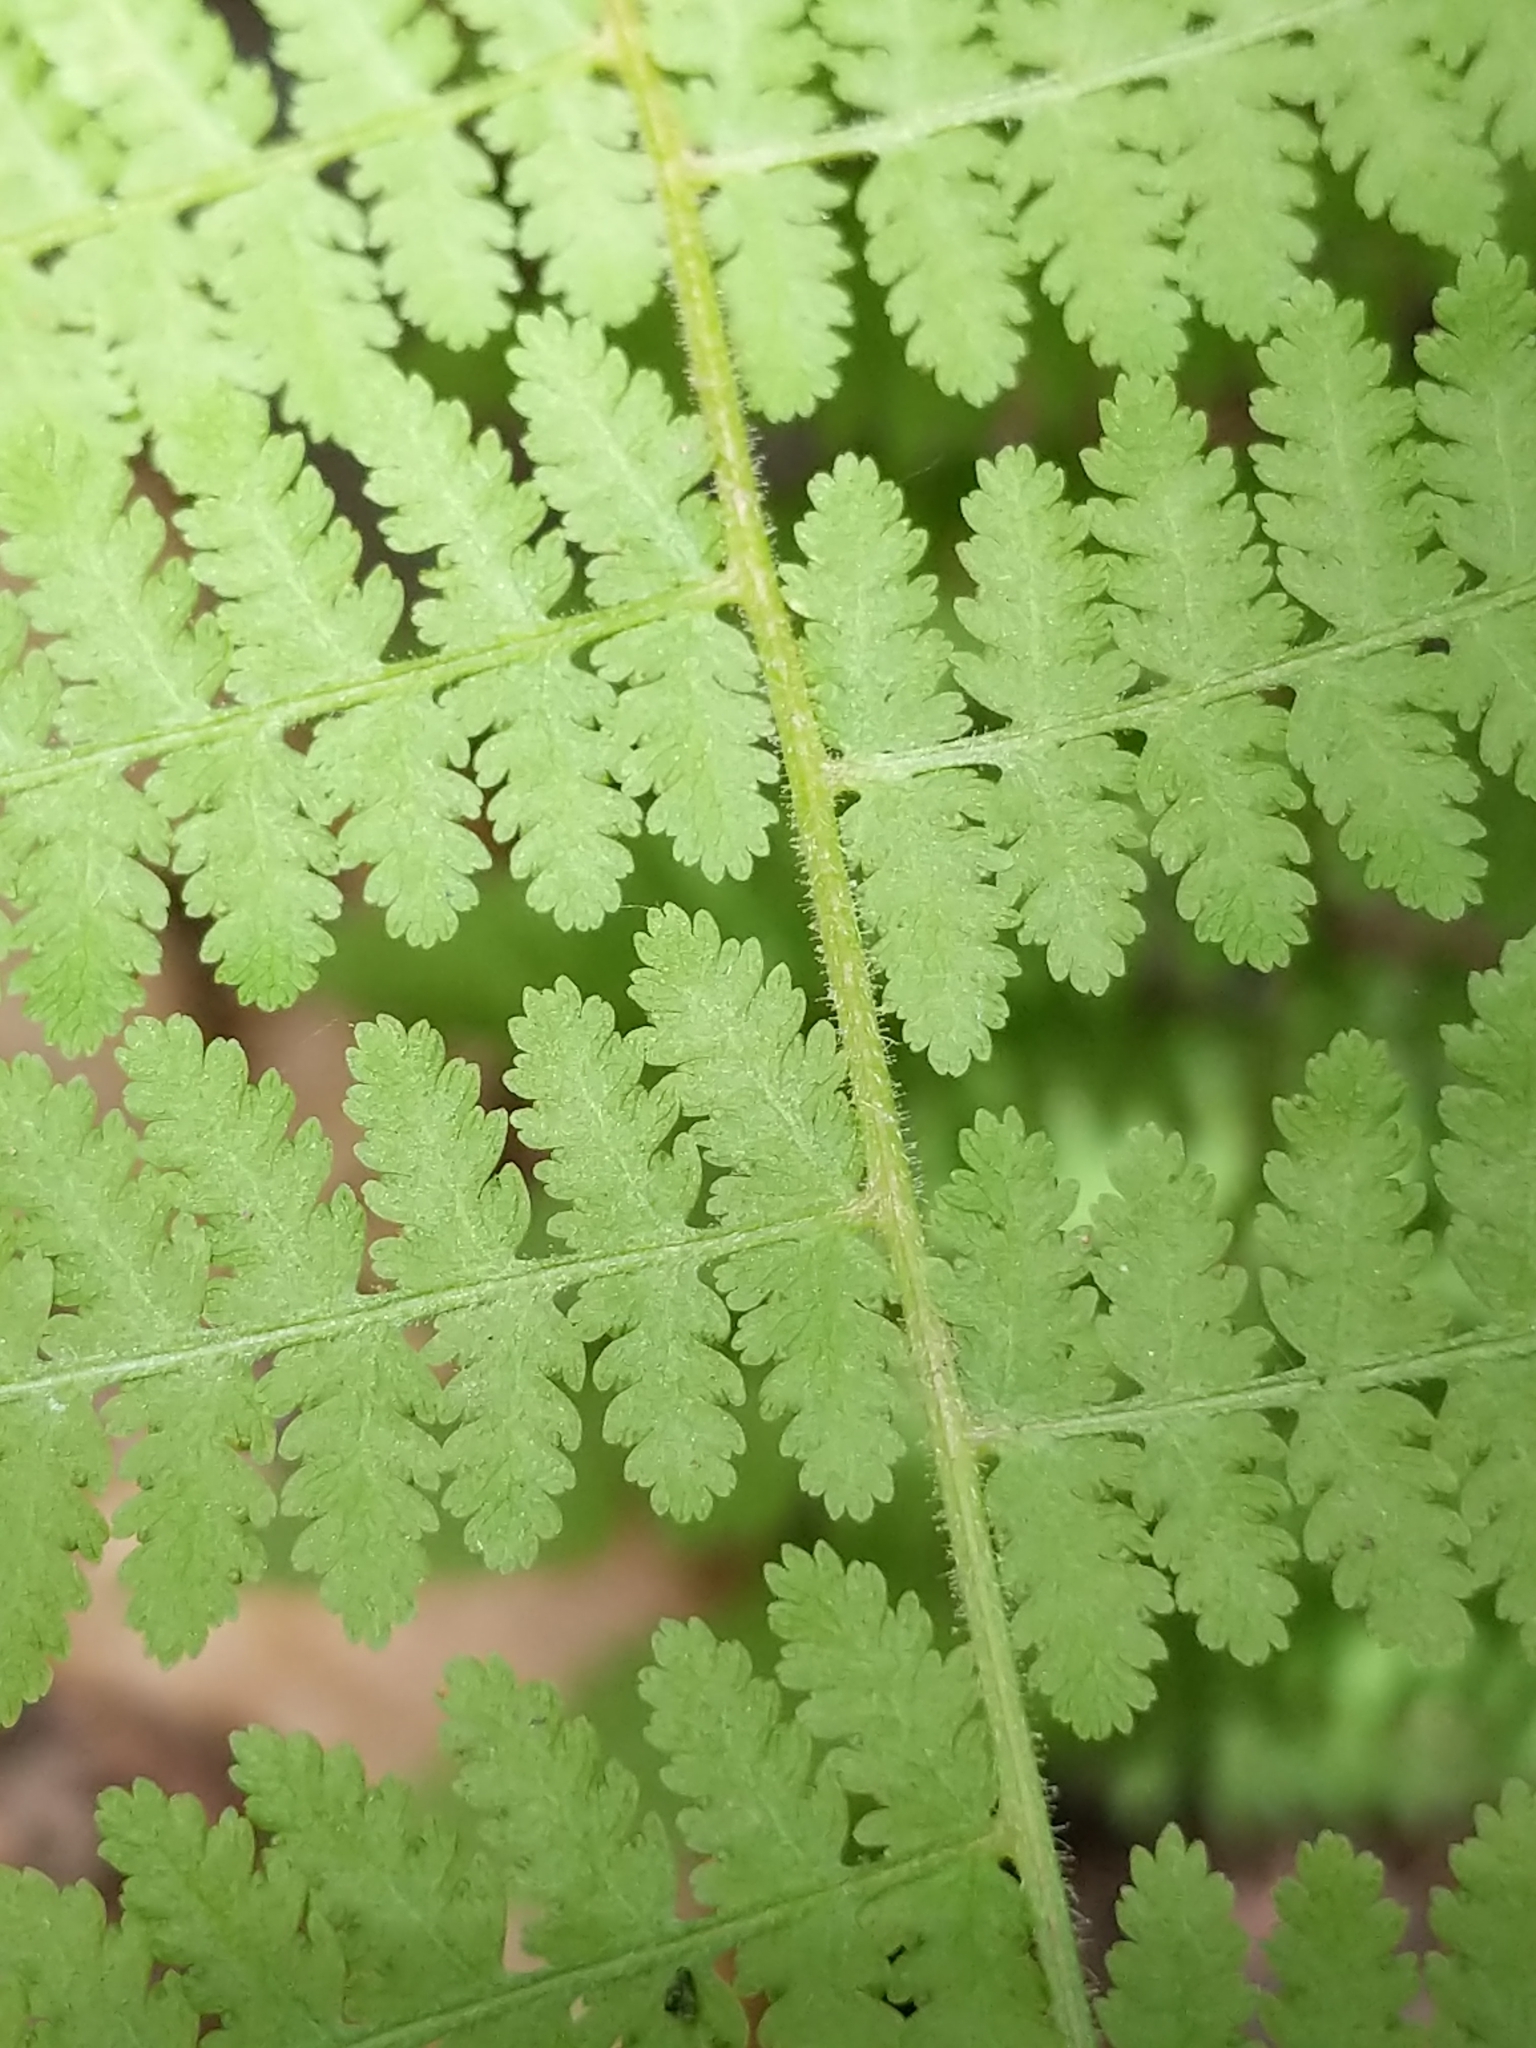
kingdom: Plantae
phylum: Tracheophyta
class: Polypodiopsida
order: Polypodiales
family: Dennstaedtiaceae
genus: Sitobolium
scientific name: Sitobolium punctilobum
